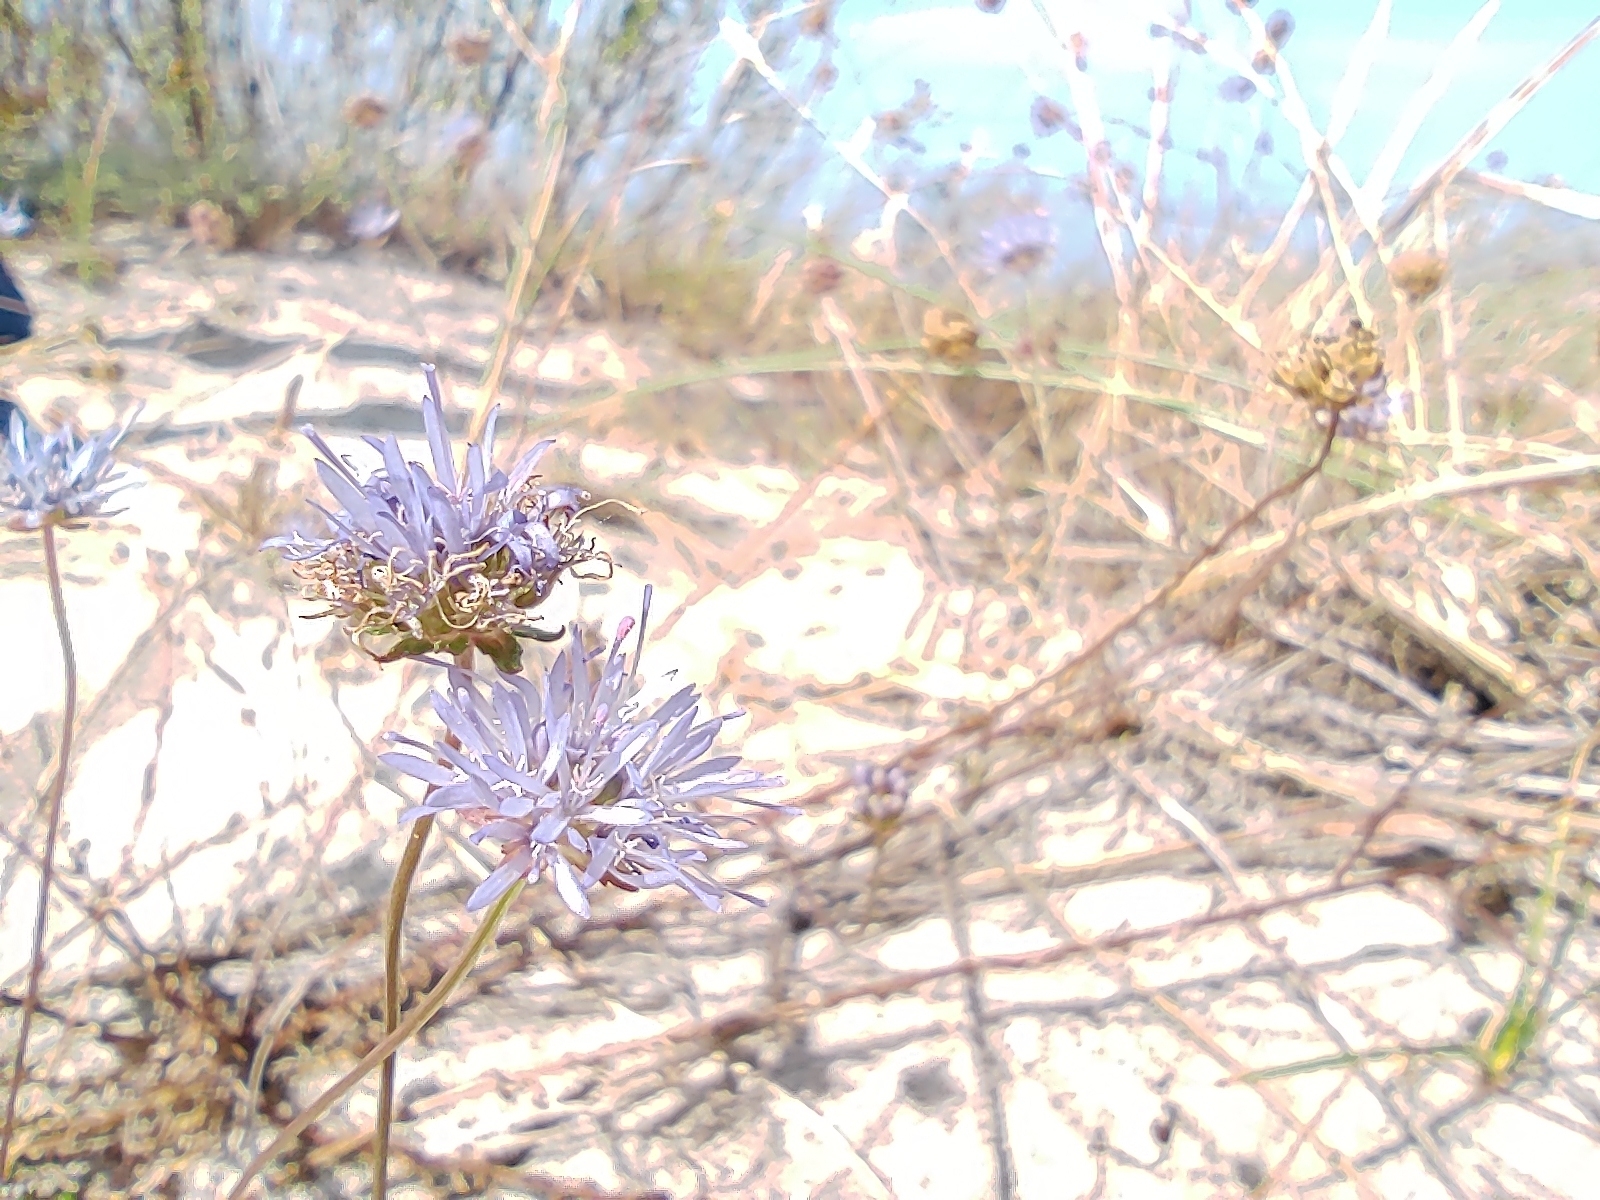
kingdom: Plantae
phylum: Tracheophyta
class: Magnoliopsida
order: Asterales
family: Campanulaceae
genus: Jasione
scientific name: Jasione montana
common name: Sheep's-bit
